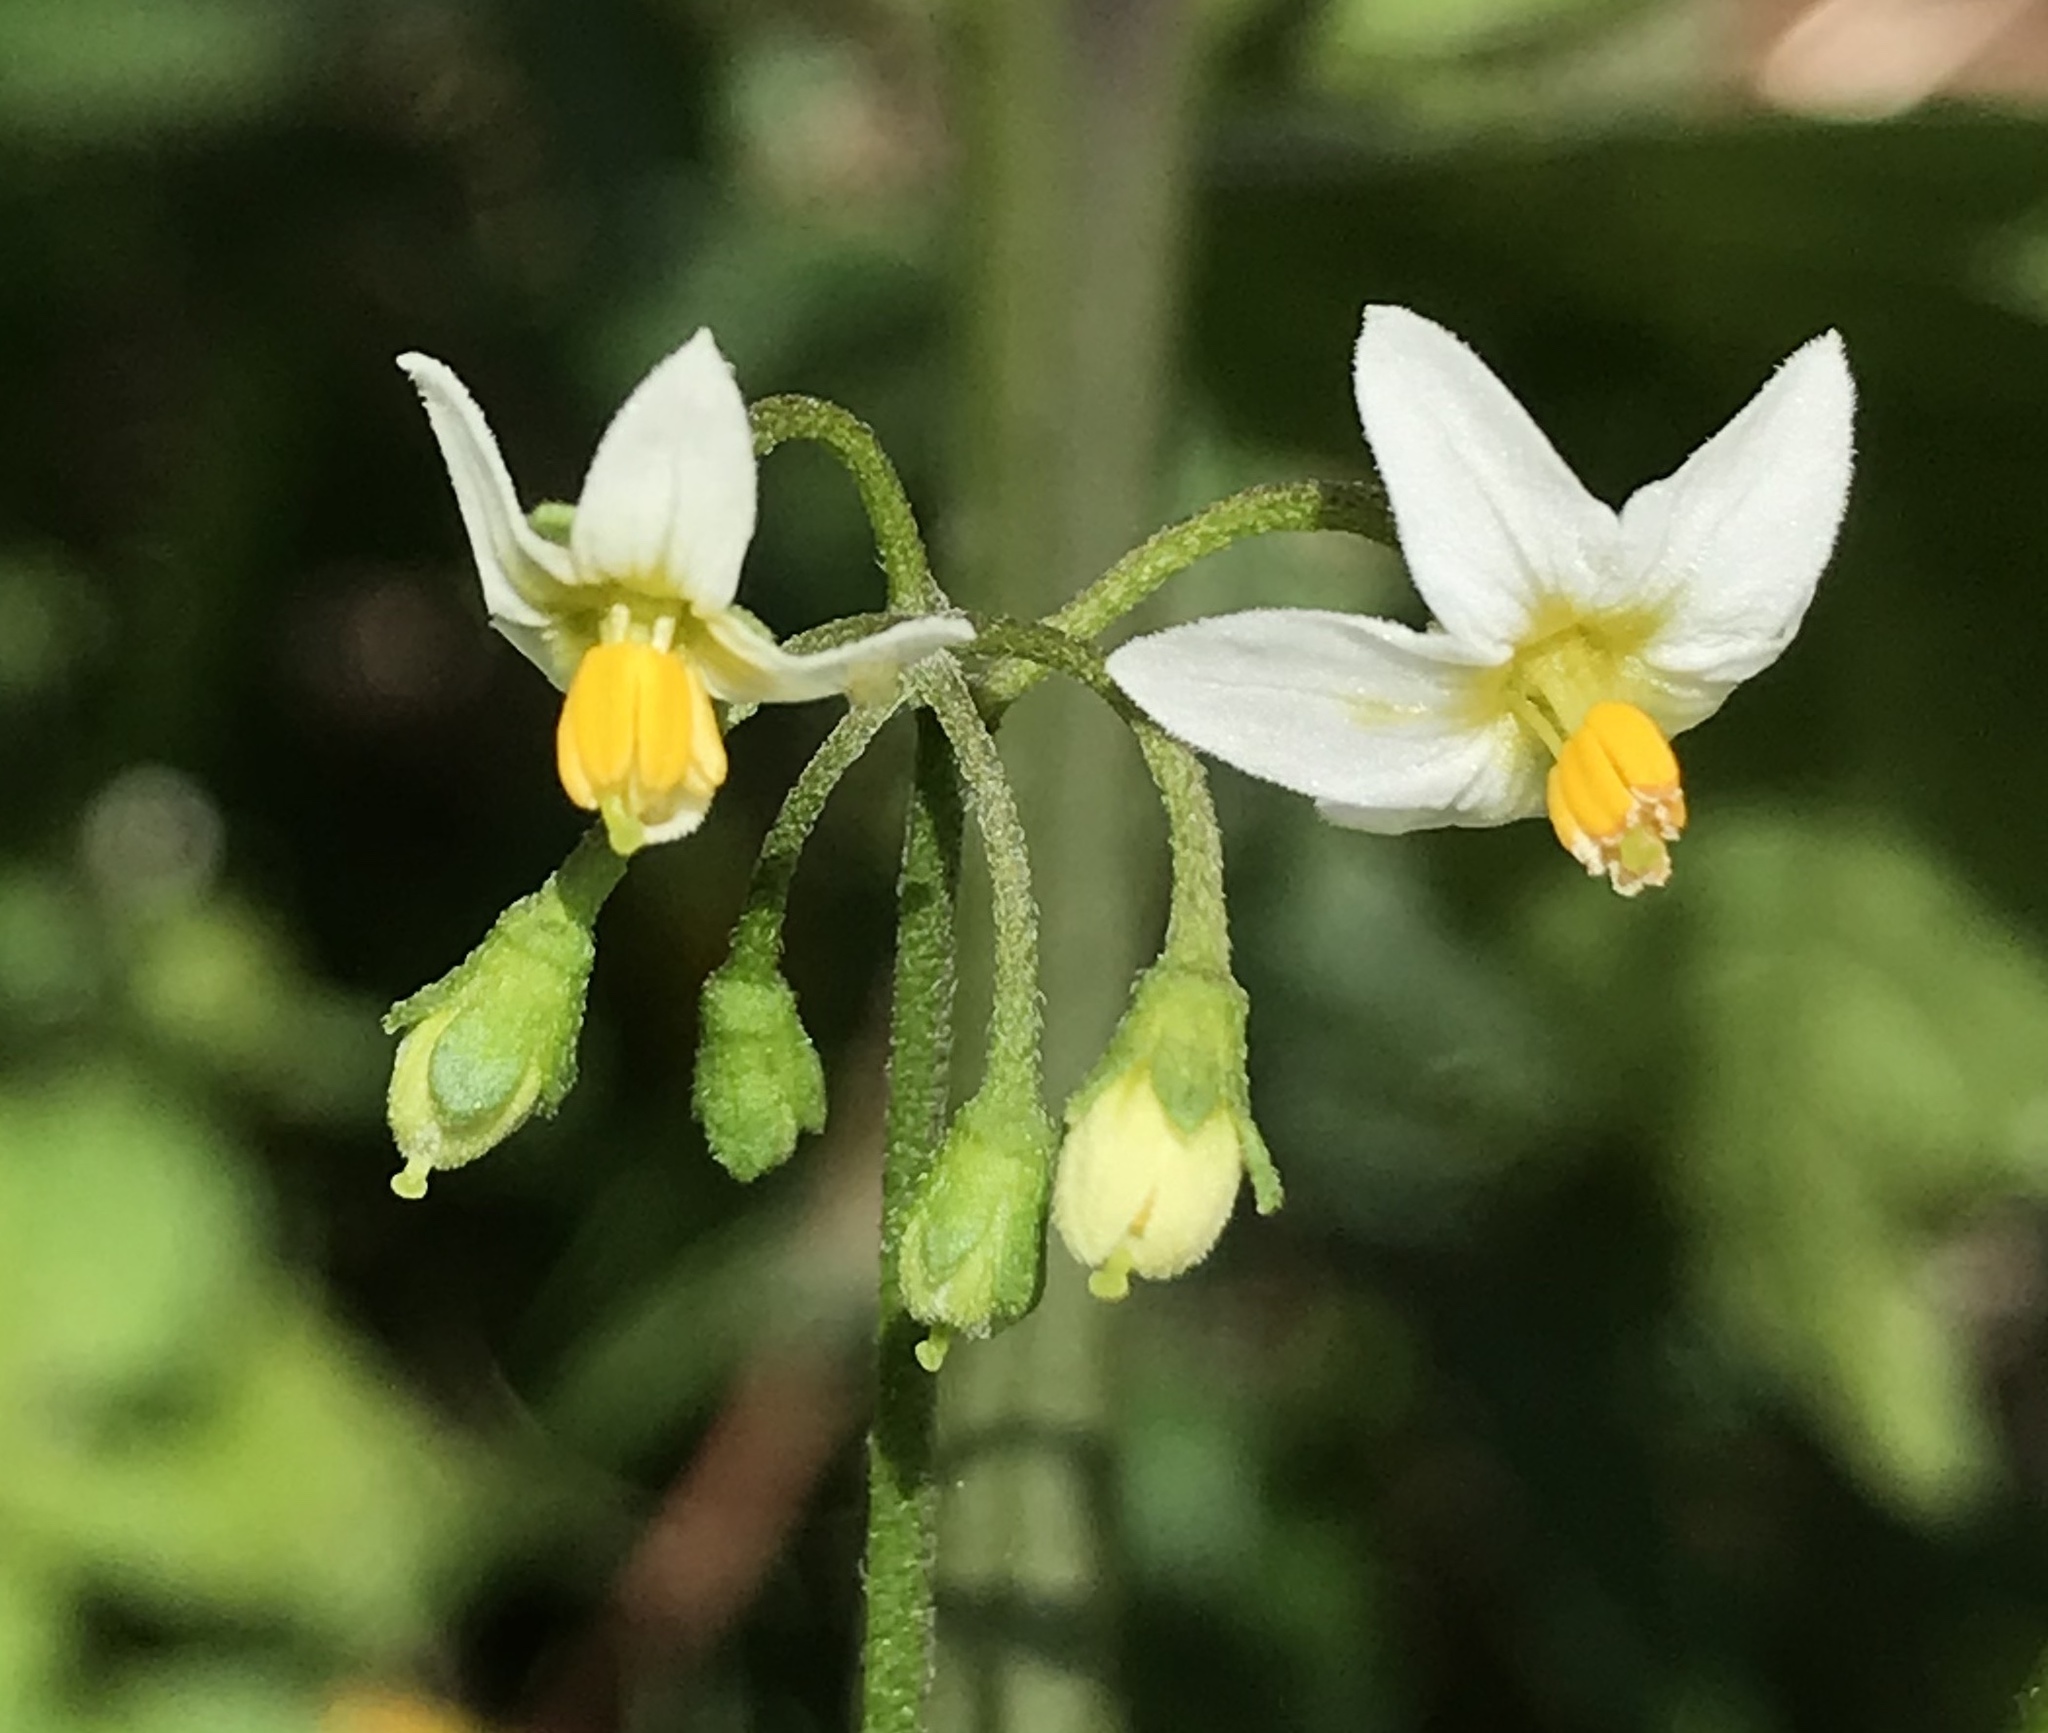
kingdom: Plantae
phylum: Tracheophyta
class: Magnoliopsida
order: Solanales
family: Solanaceae
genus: Solanum
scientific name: Solanum nigrum
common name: Black nightshade
